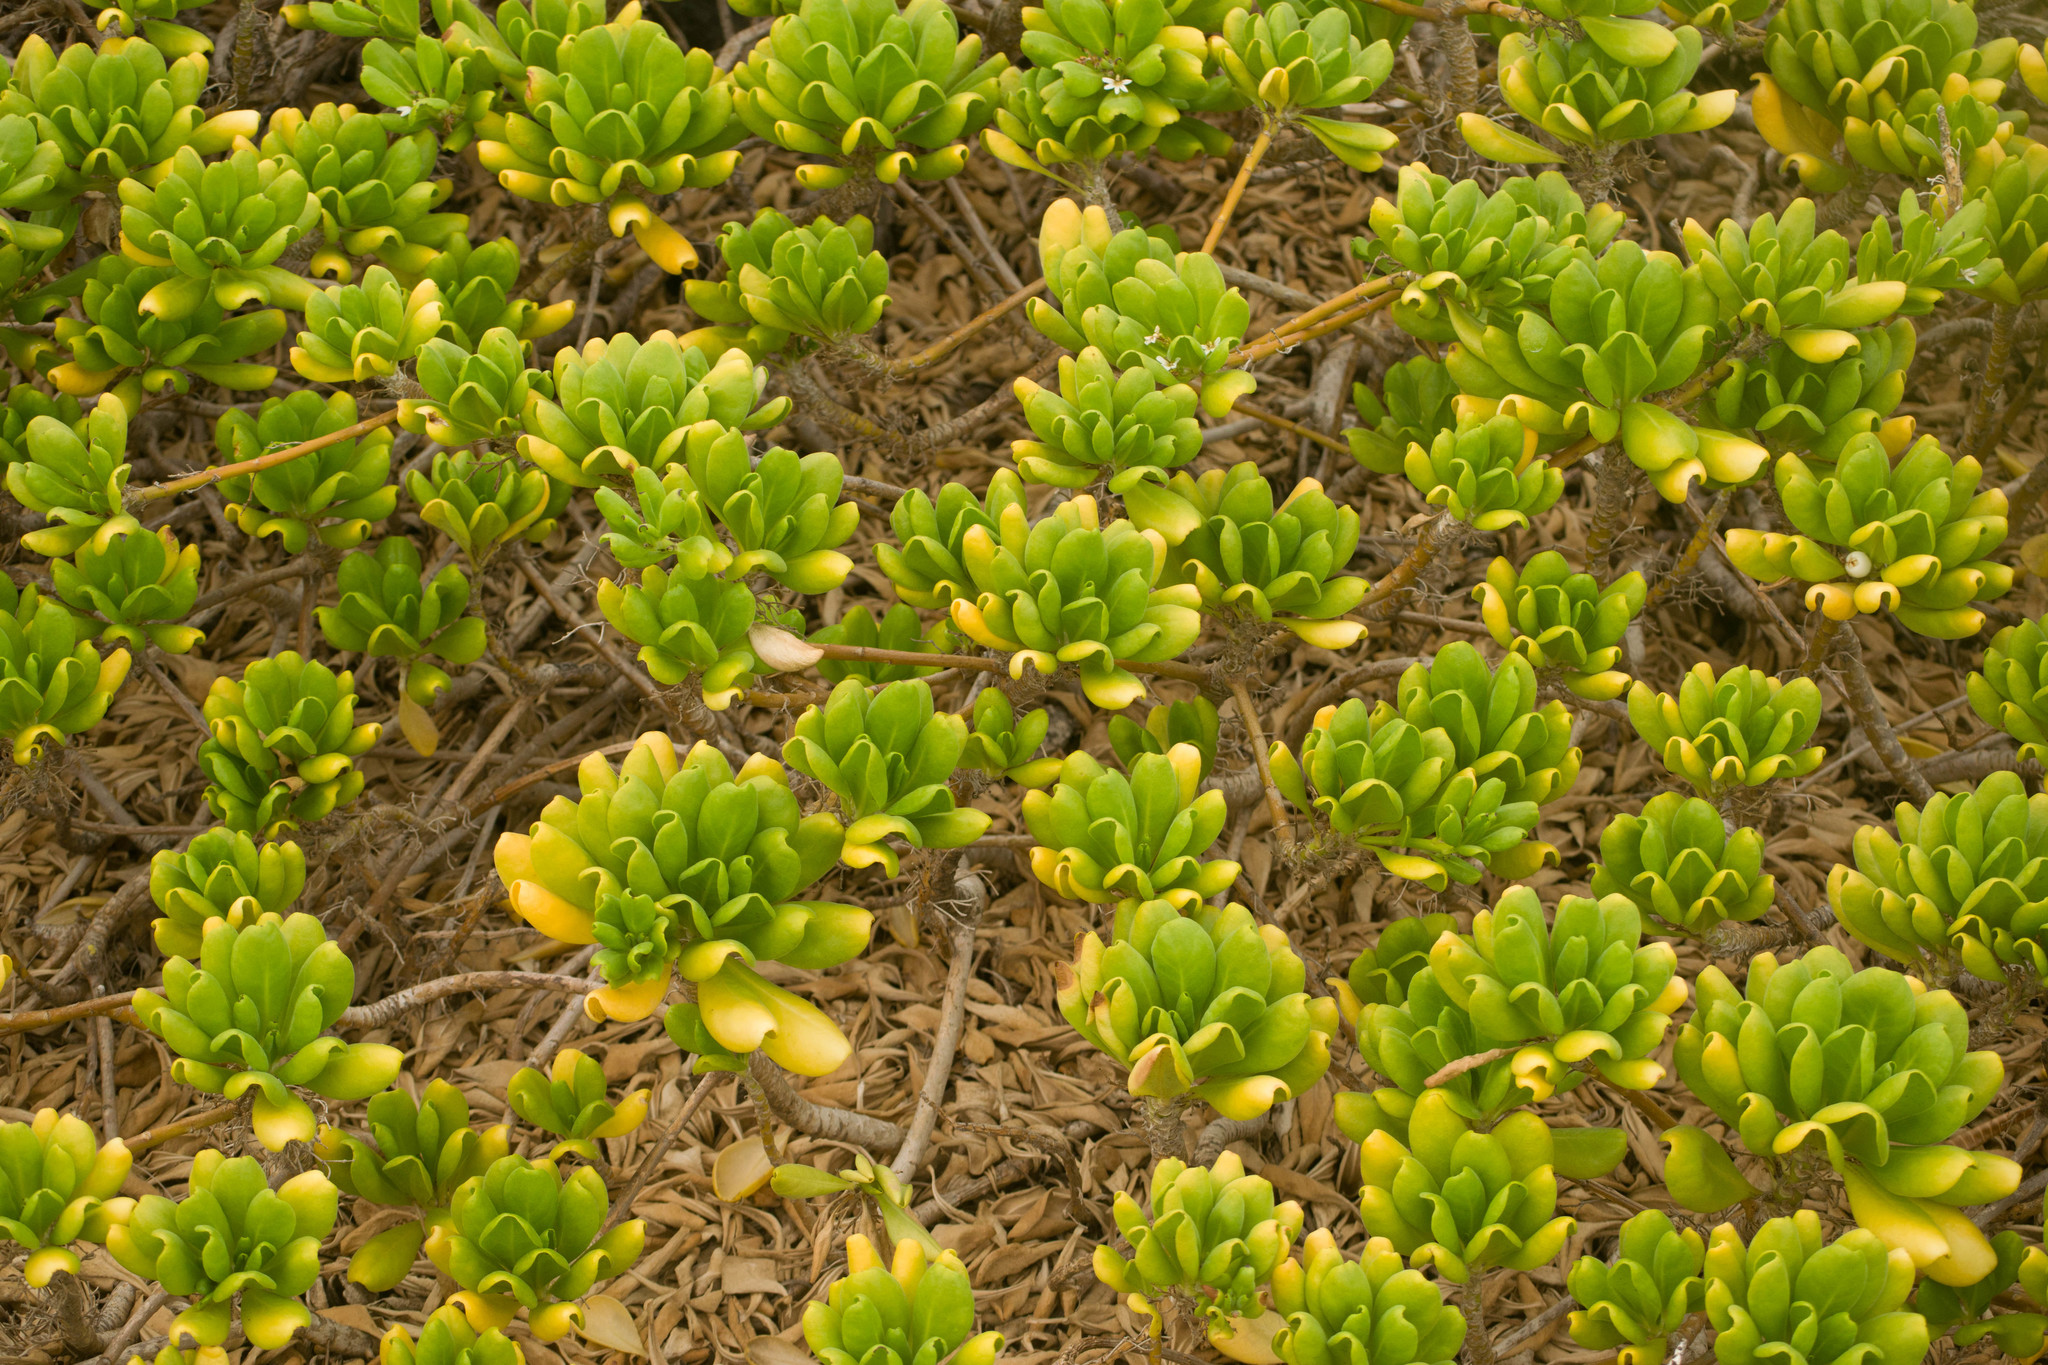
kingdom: Plantae
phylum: Tracheophyta
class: Magnoliopsida
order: Asterales
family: Goodeniaceae
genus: Scaevola
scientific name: Scaevola taccada
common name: Sea lettucetree
